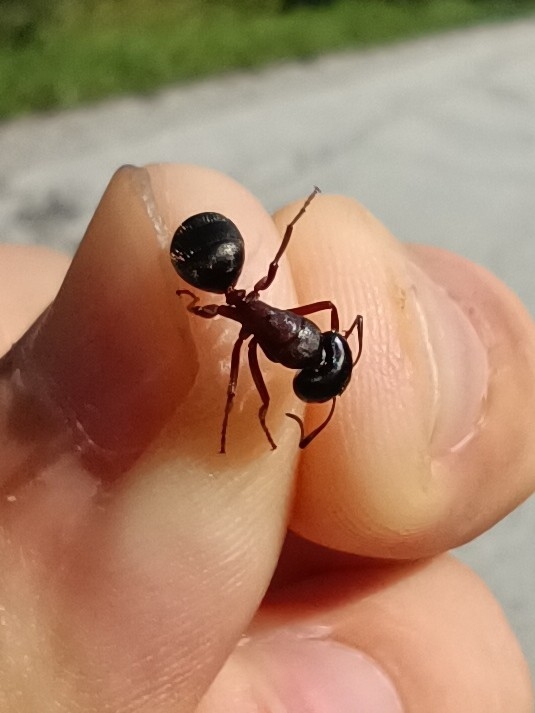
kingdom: Animalia
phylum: Arthropoda
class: Insecta
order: Hymenoptera
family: Formicidae
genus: Camponotus
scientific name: Camponotus herculeanus
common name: Hercules ant
